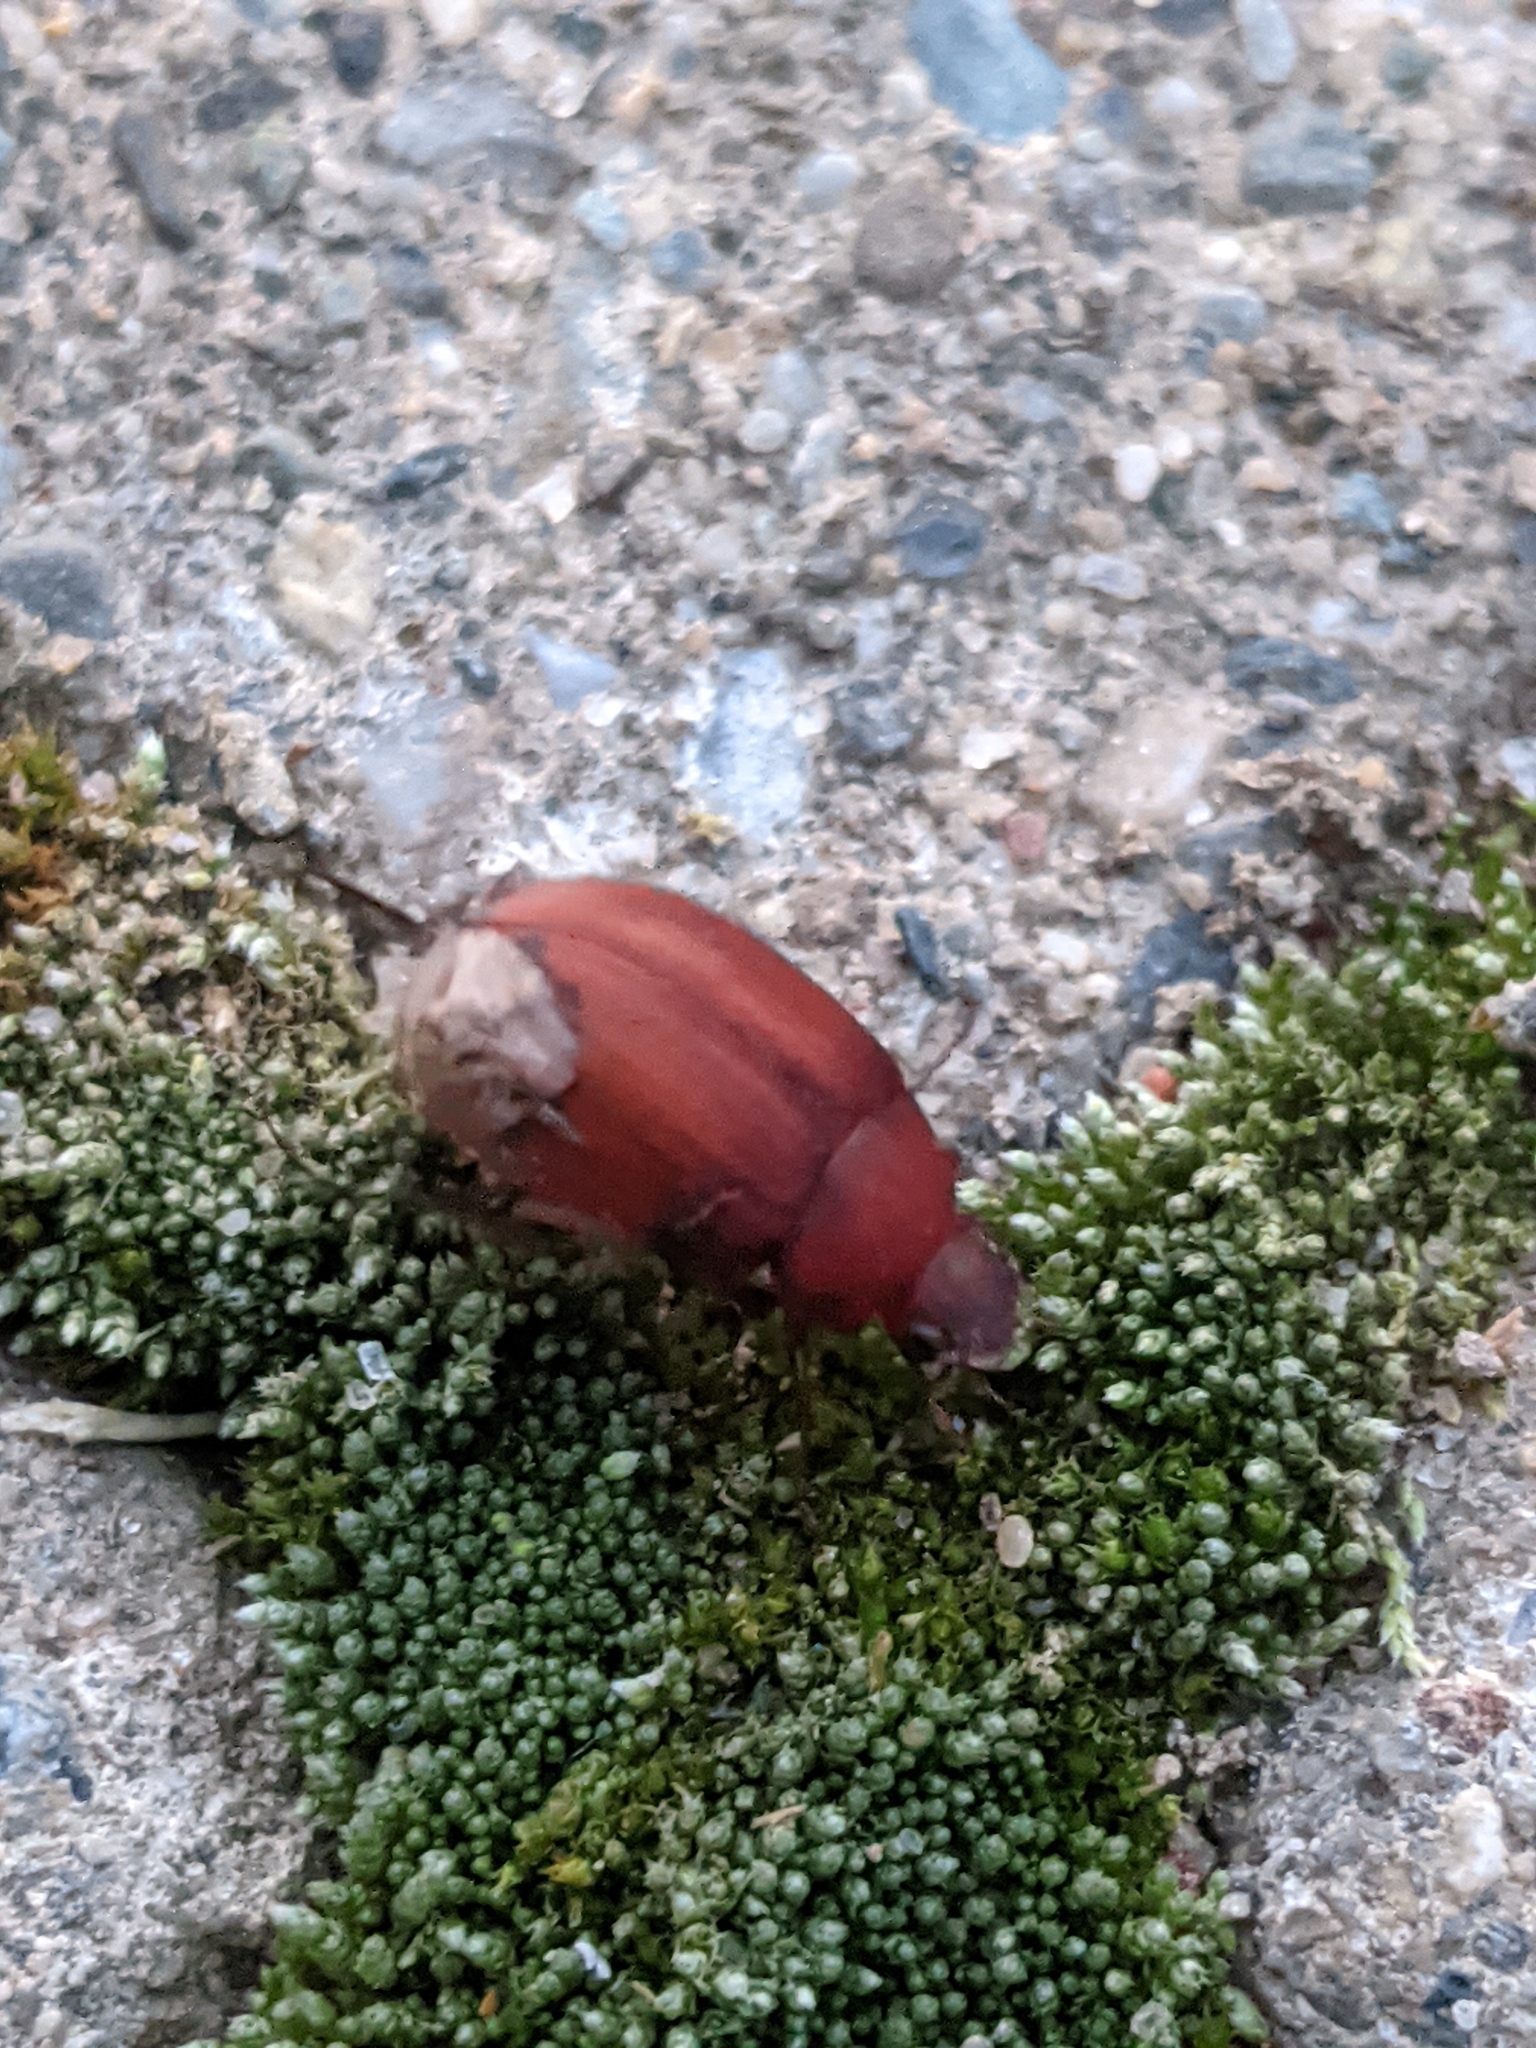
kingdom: Animalia
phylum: Arthropoda
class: Insecta
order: Coleoptera
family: Scarabaeidae
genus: Maladera
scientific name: Maladera formosae
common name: Asiatic garden beetle
